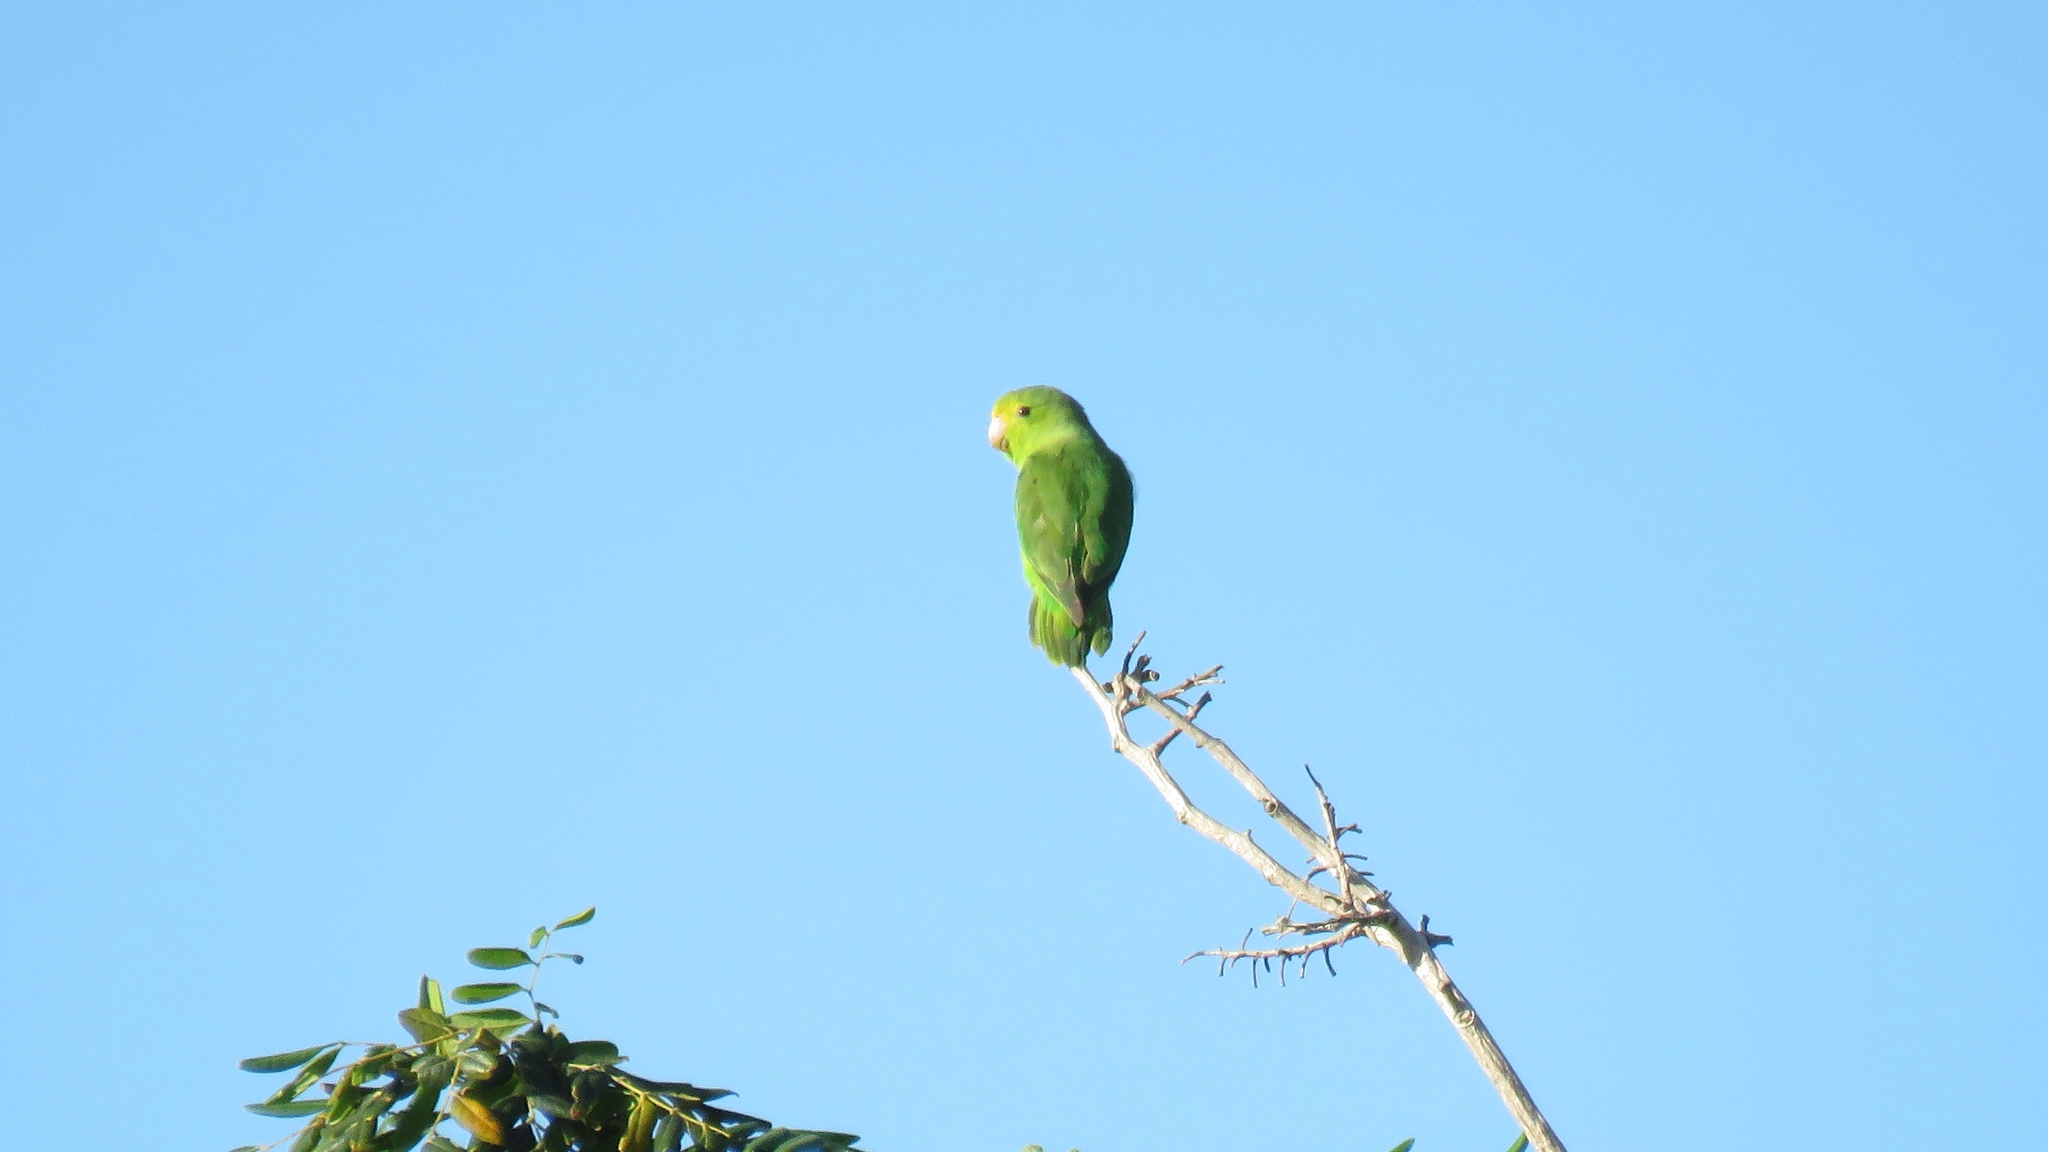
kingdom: Animalia
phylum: Chordata
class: Aves
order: Psittaciformes
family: Psittacidae
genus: Forpus
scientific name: Forpus passerinus
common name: Green-rumped parrotlet
